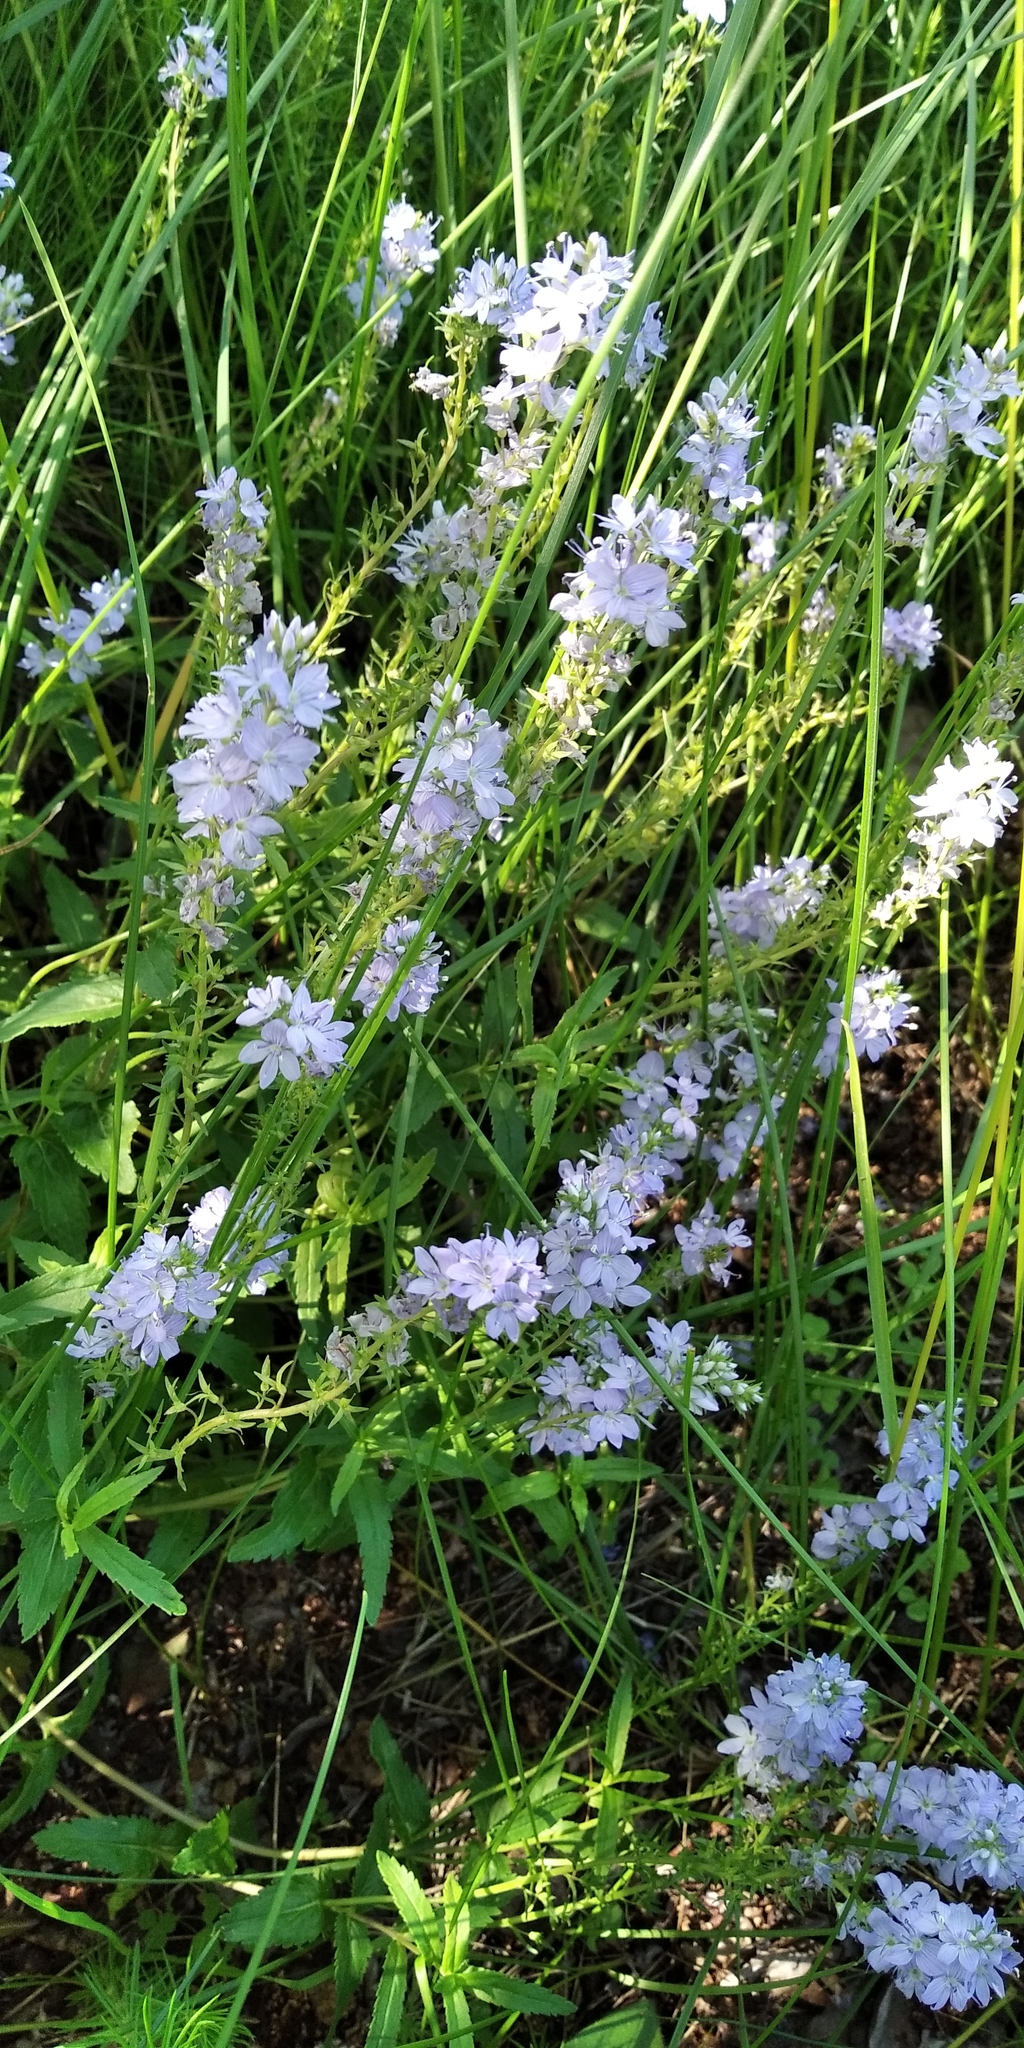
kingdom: Plantae
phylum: Tracheophyta
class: Magnoliopsida
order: Lamiales
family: Plantaginaceae
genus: Veronica
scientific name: Veronica prostrata
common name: Prostrate speedwell
